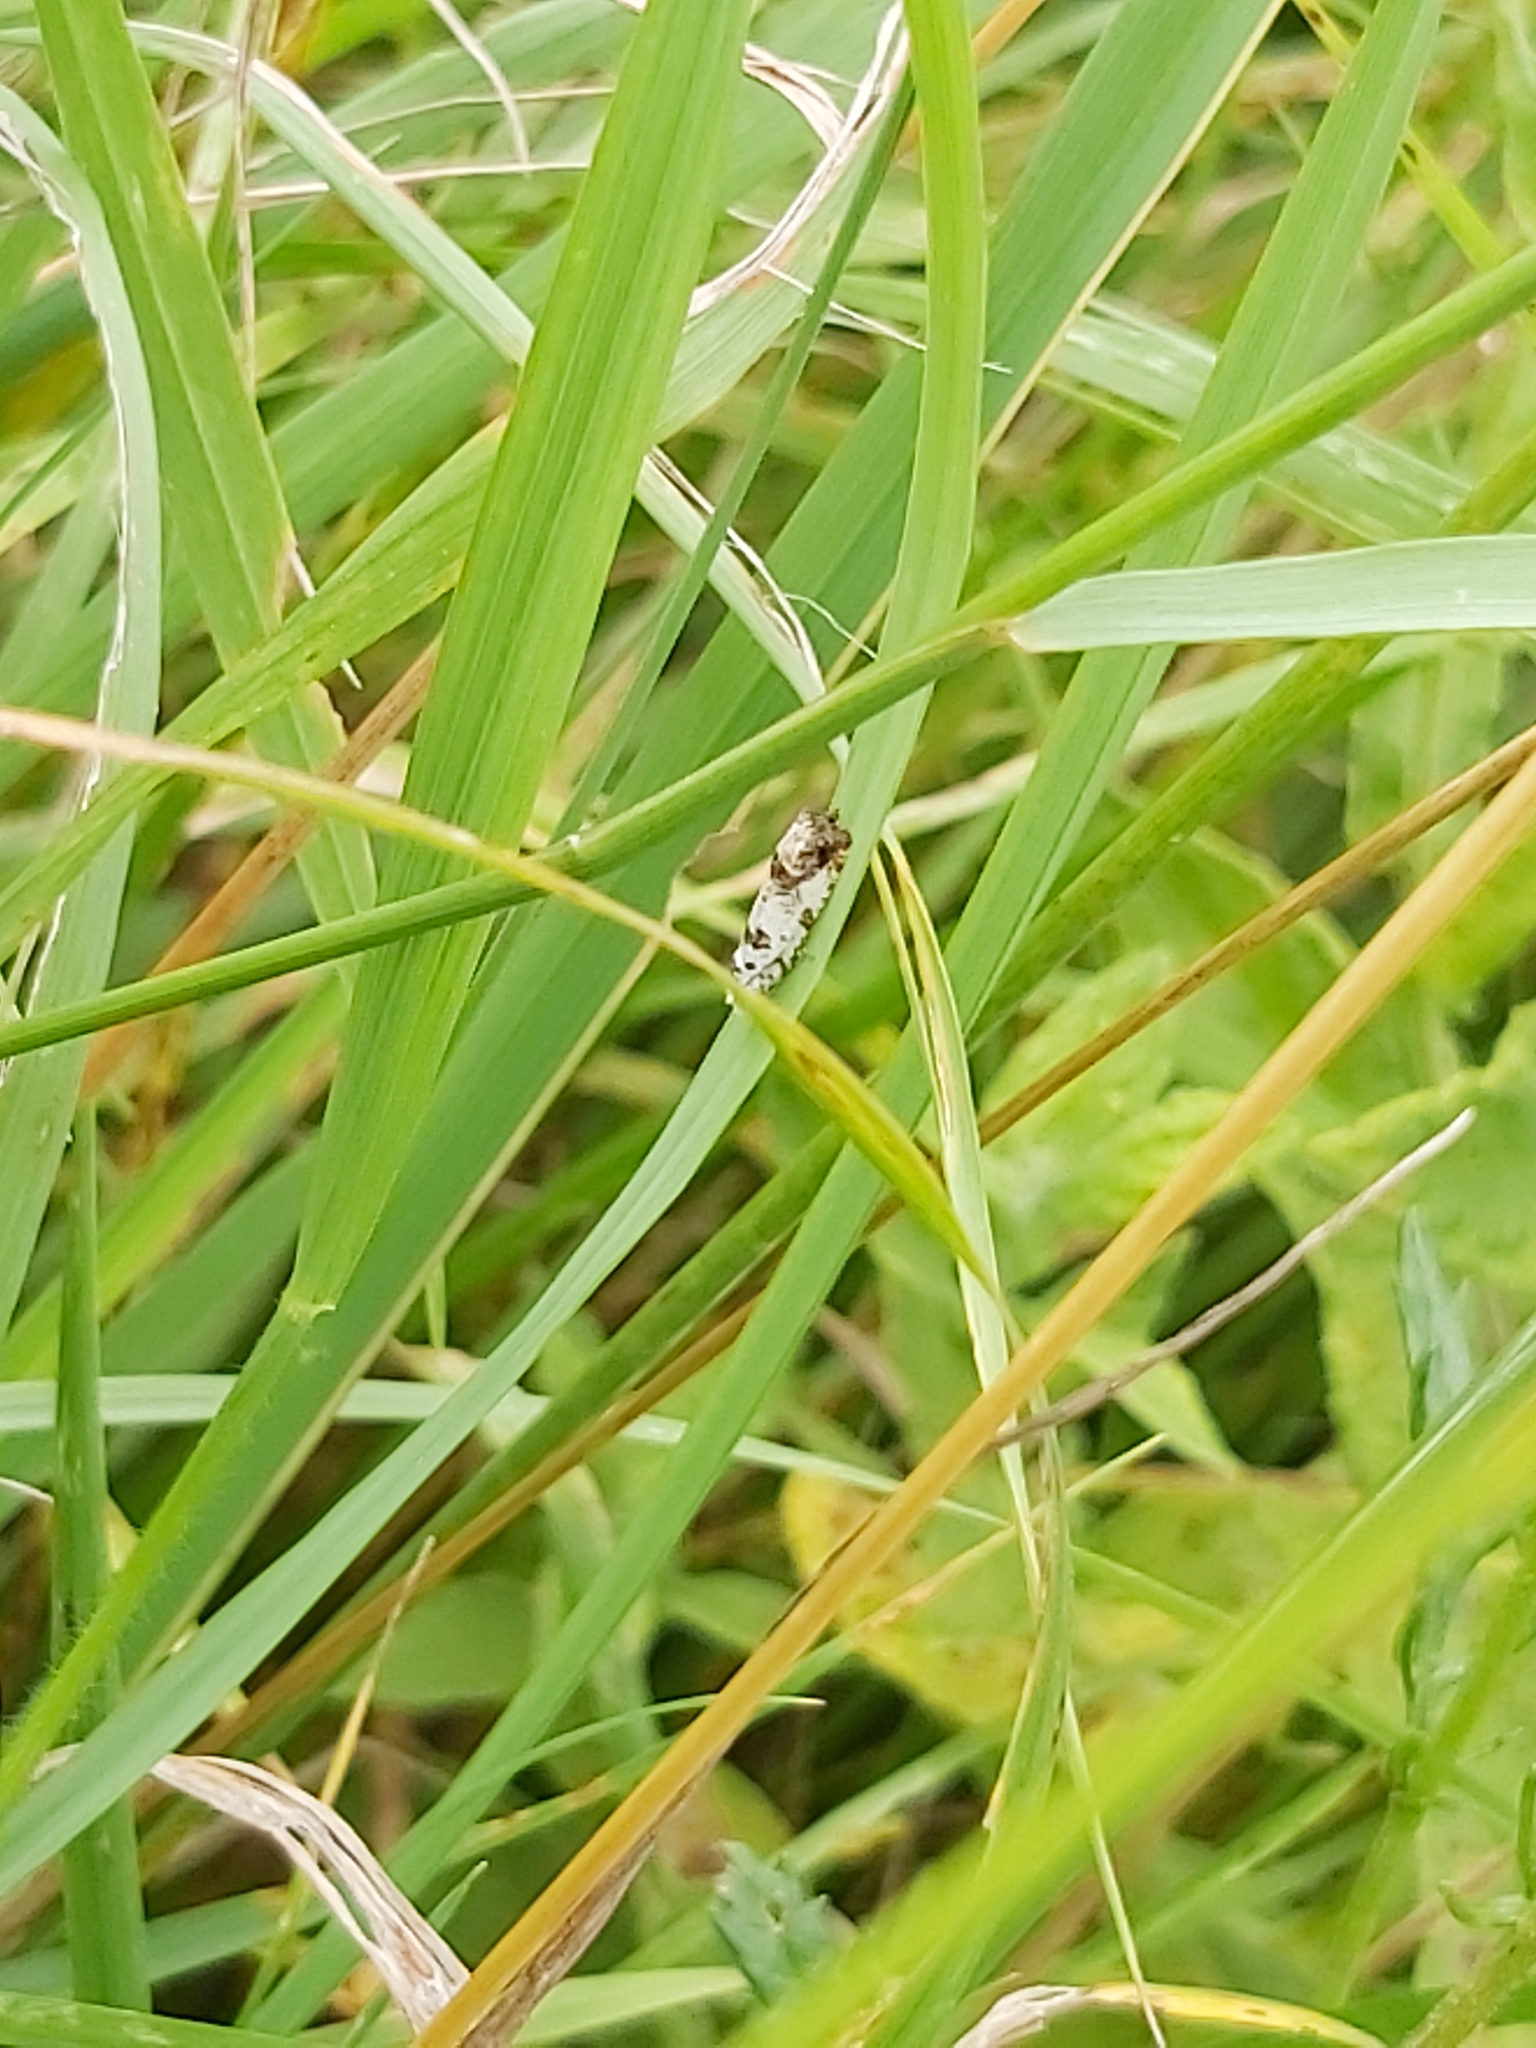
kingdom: Animalia
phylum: Arthropoda
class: Insecta
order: Lepidoptera
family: Tortricidae
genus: Eucosma
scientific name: Eucosma campoliliana
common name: Marbled bell
